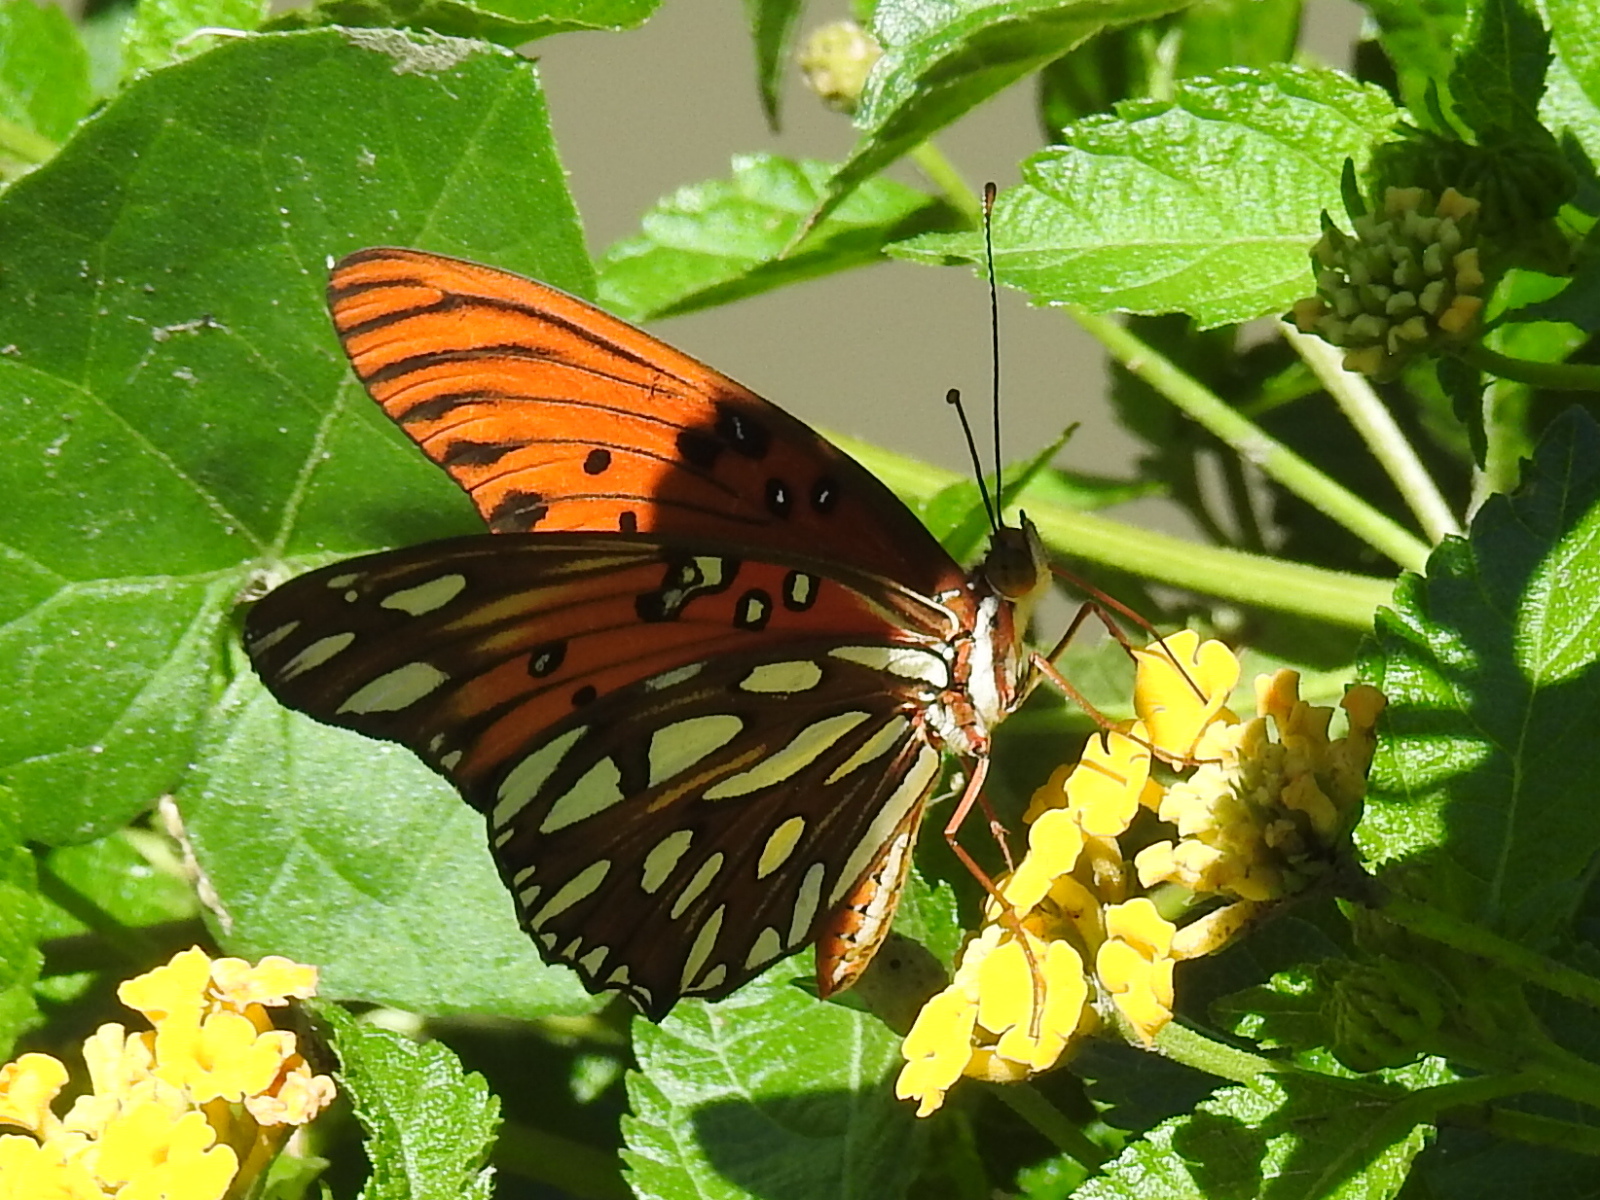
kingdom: Animalia
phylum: Arthropoda
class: Insecta
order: Lepidoptera
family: Nymphalidae
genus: Dione
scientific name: Dione vanillae
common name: Gulf fritillary
